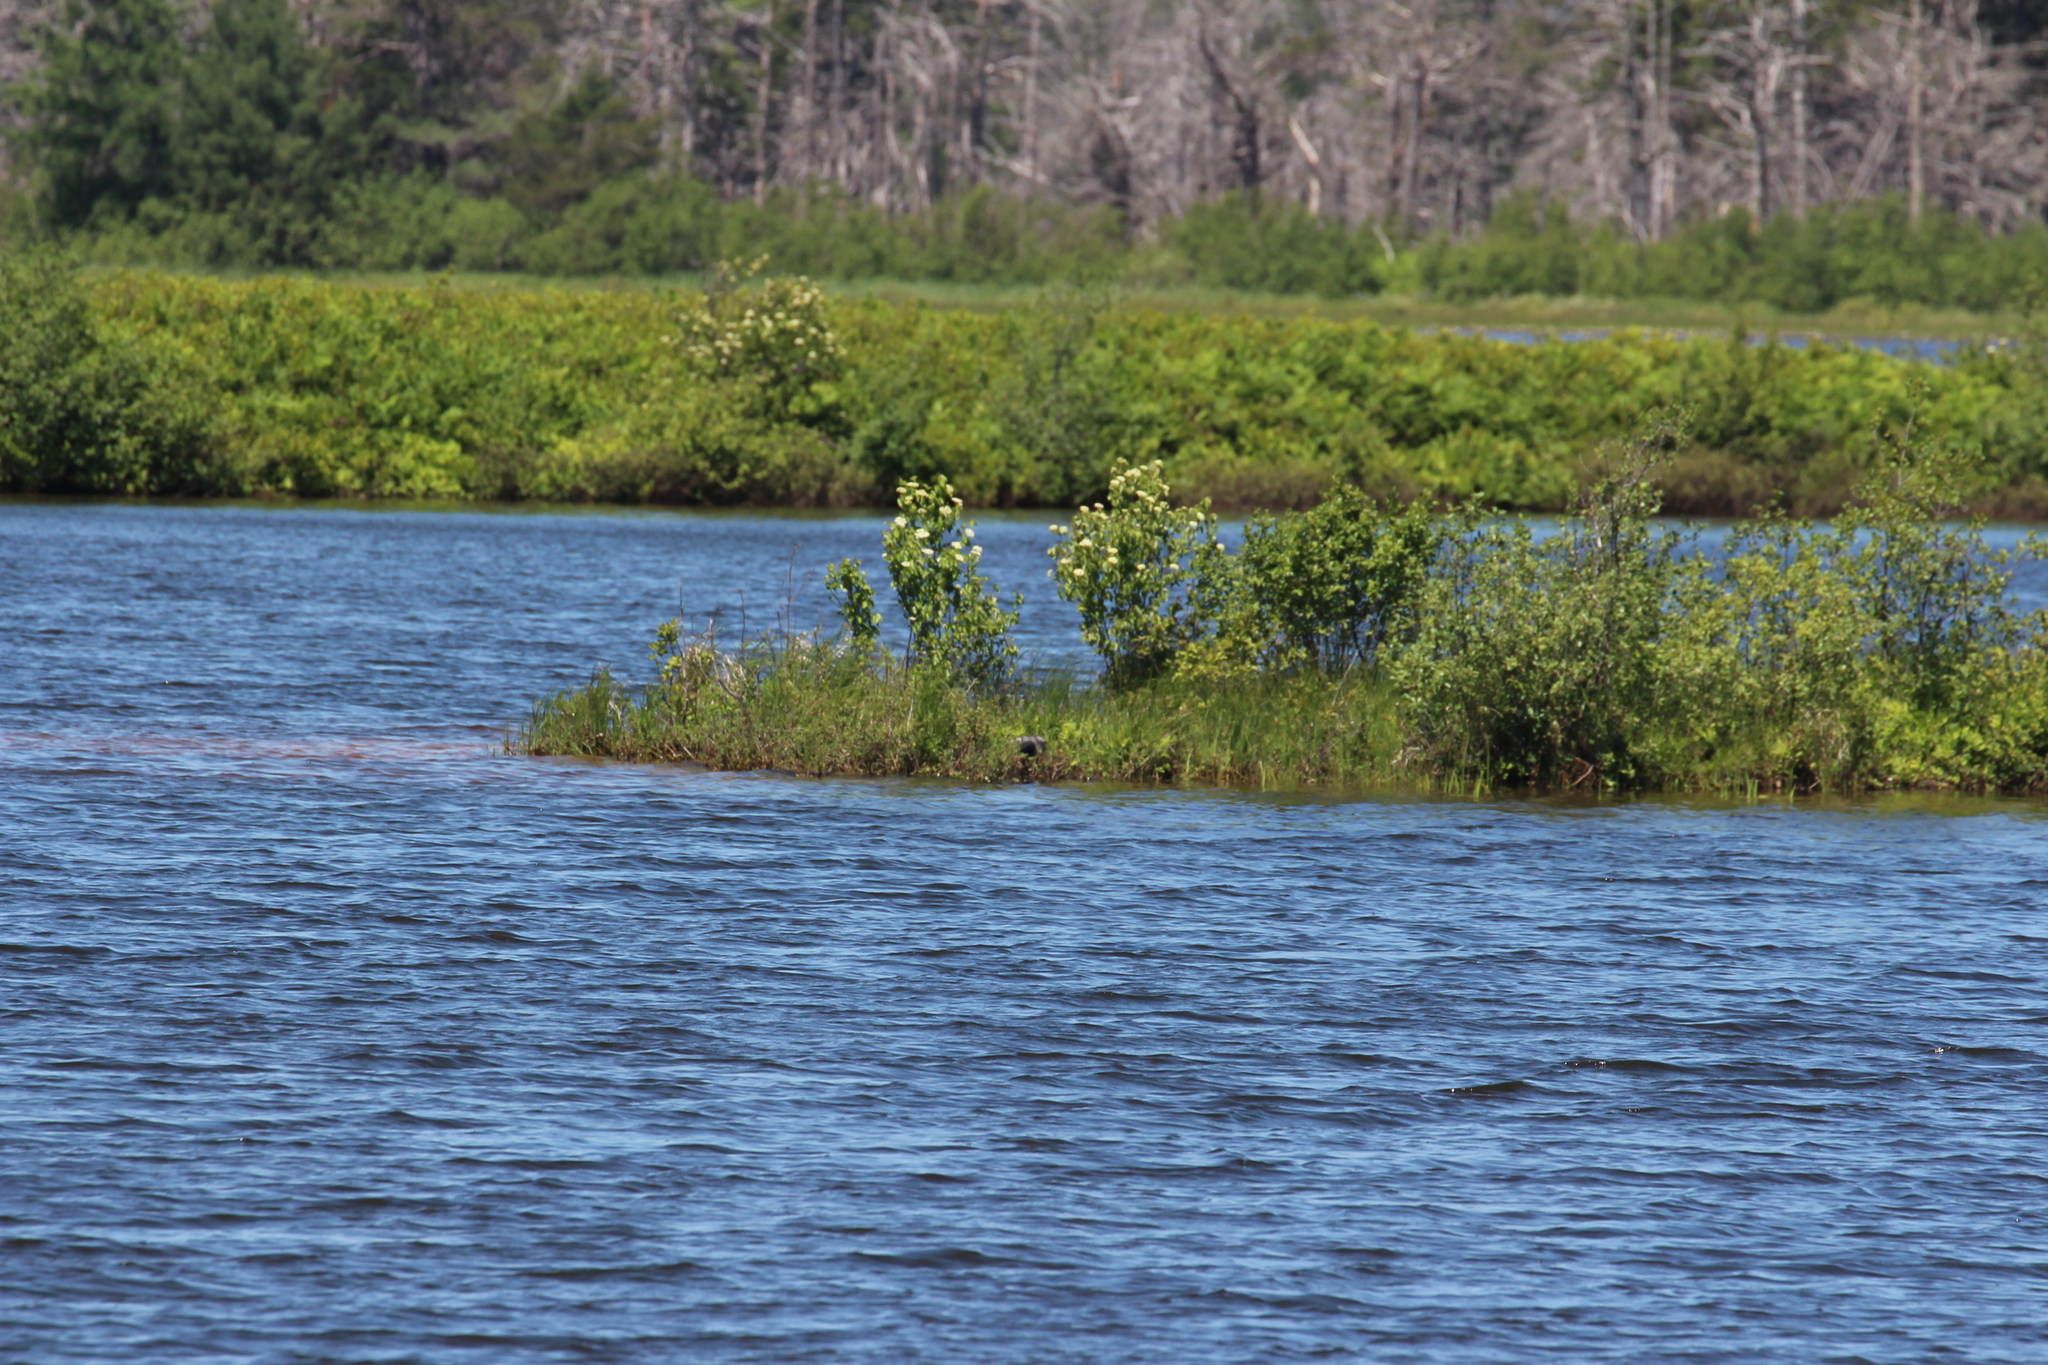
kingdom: Animalia
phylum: Chordata
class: Aves
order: Gaviiformes
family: Gaviidae
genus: Gavia
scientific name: Gavia immer
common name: Common loon
